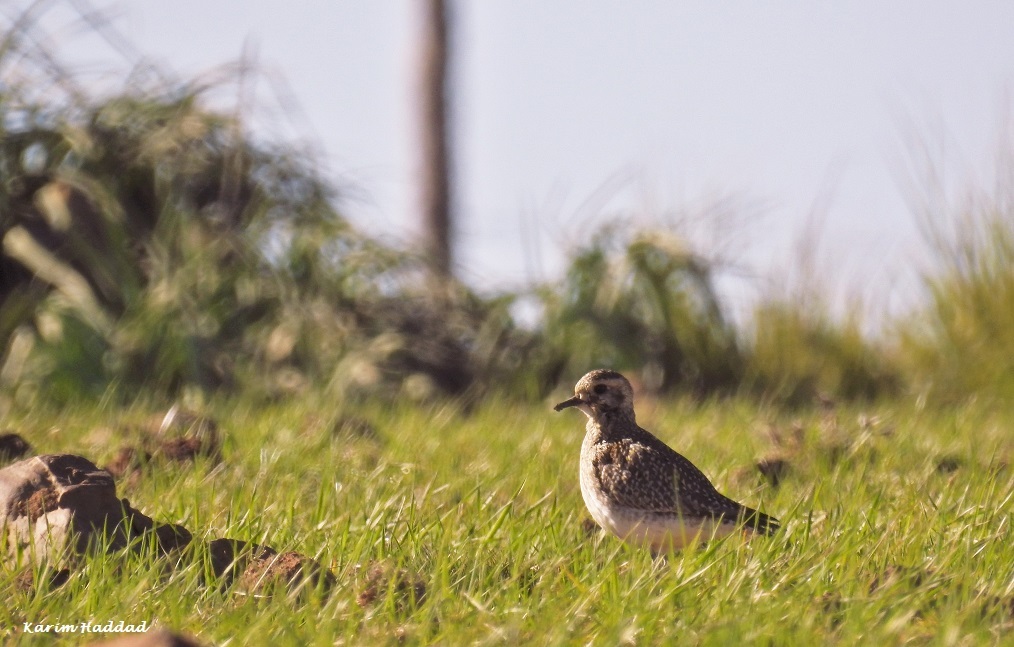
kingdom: Animalia
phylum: Chordata
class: Aves
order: Charadriiformes
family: Charadriidae
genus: Pluvialis
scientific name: Pluvialis apricaria
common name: European golden plover
